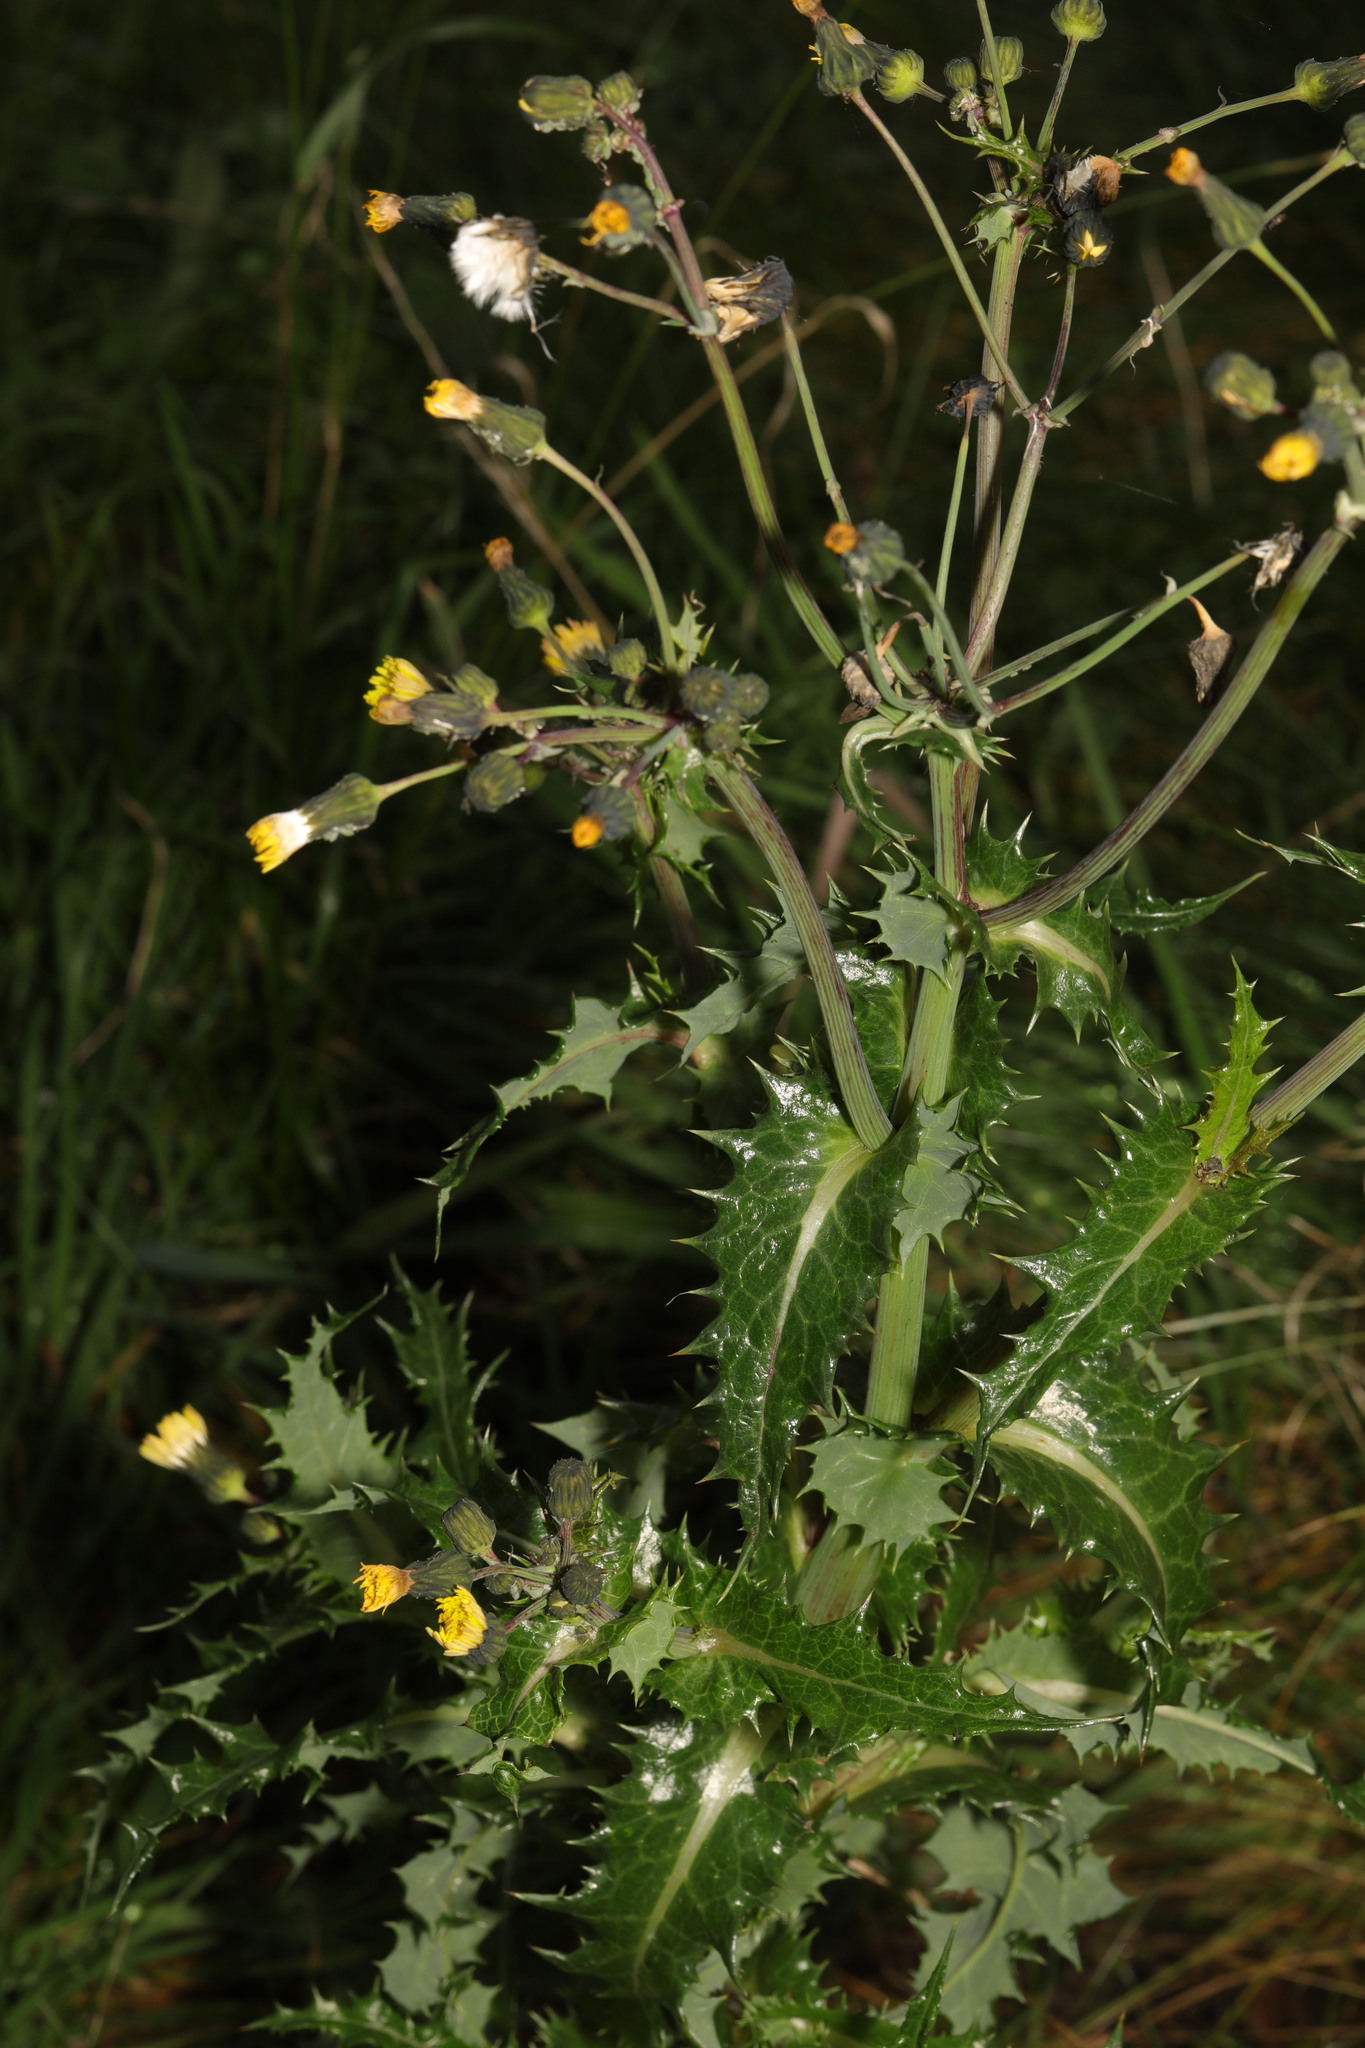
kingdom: Plantae
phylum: Tracheophyta
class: Magnoliopsida
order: Asterales
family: Asteraceae
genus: Sonchus
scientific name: Sonchus asper
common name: Prickly sow-thistle
